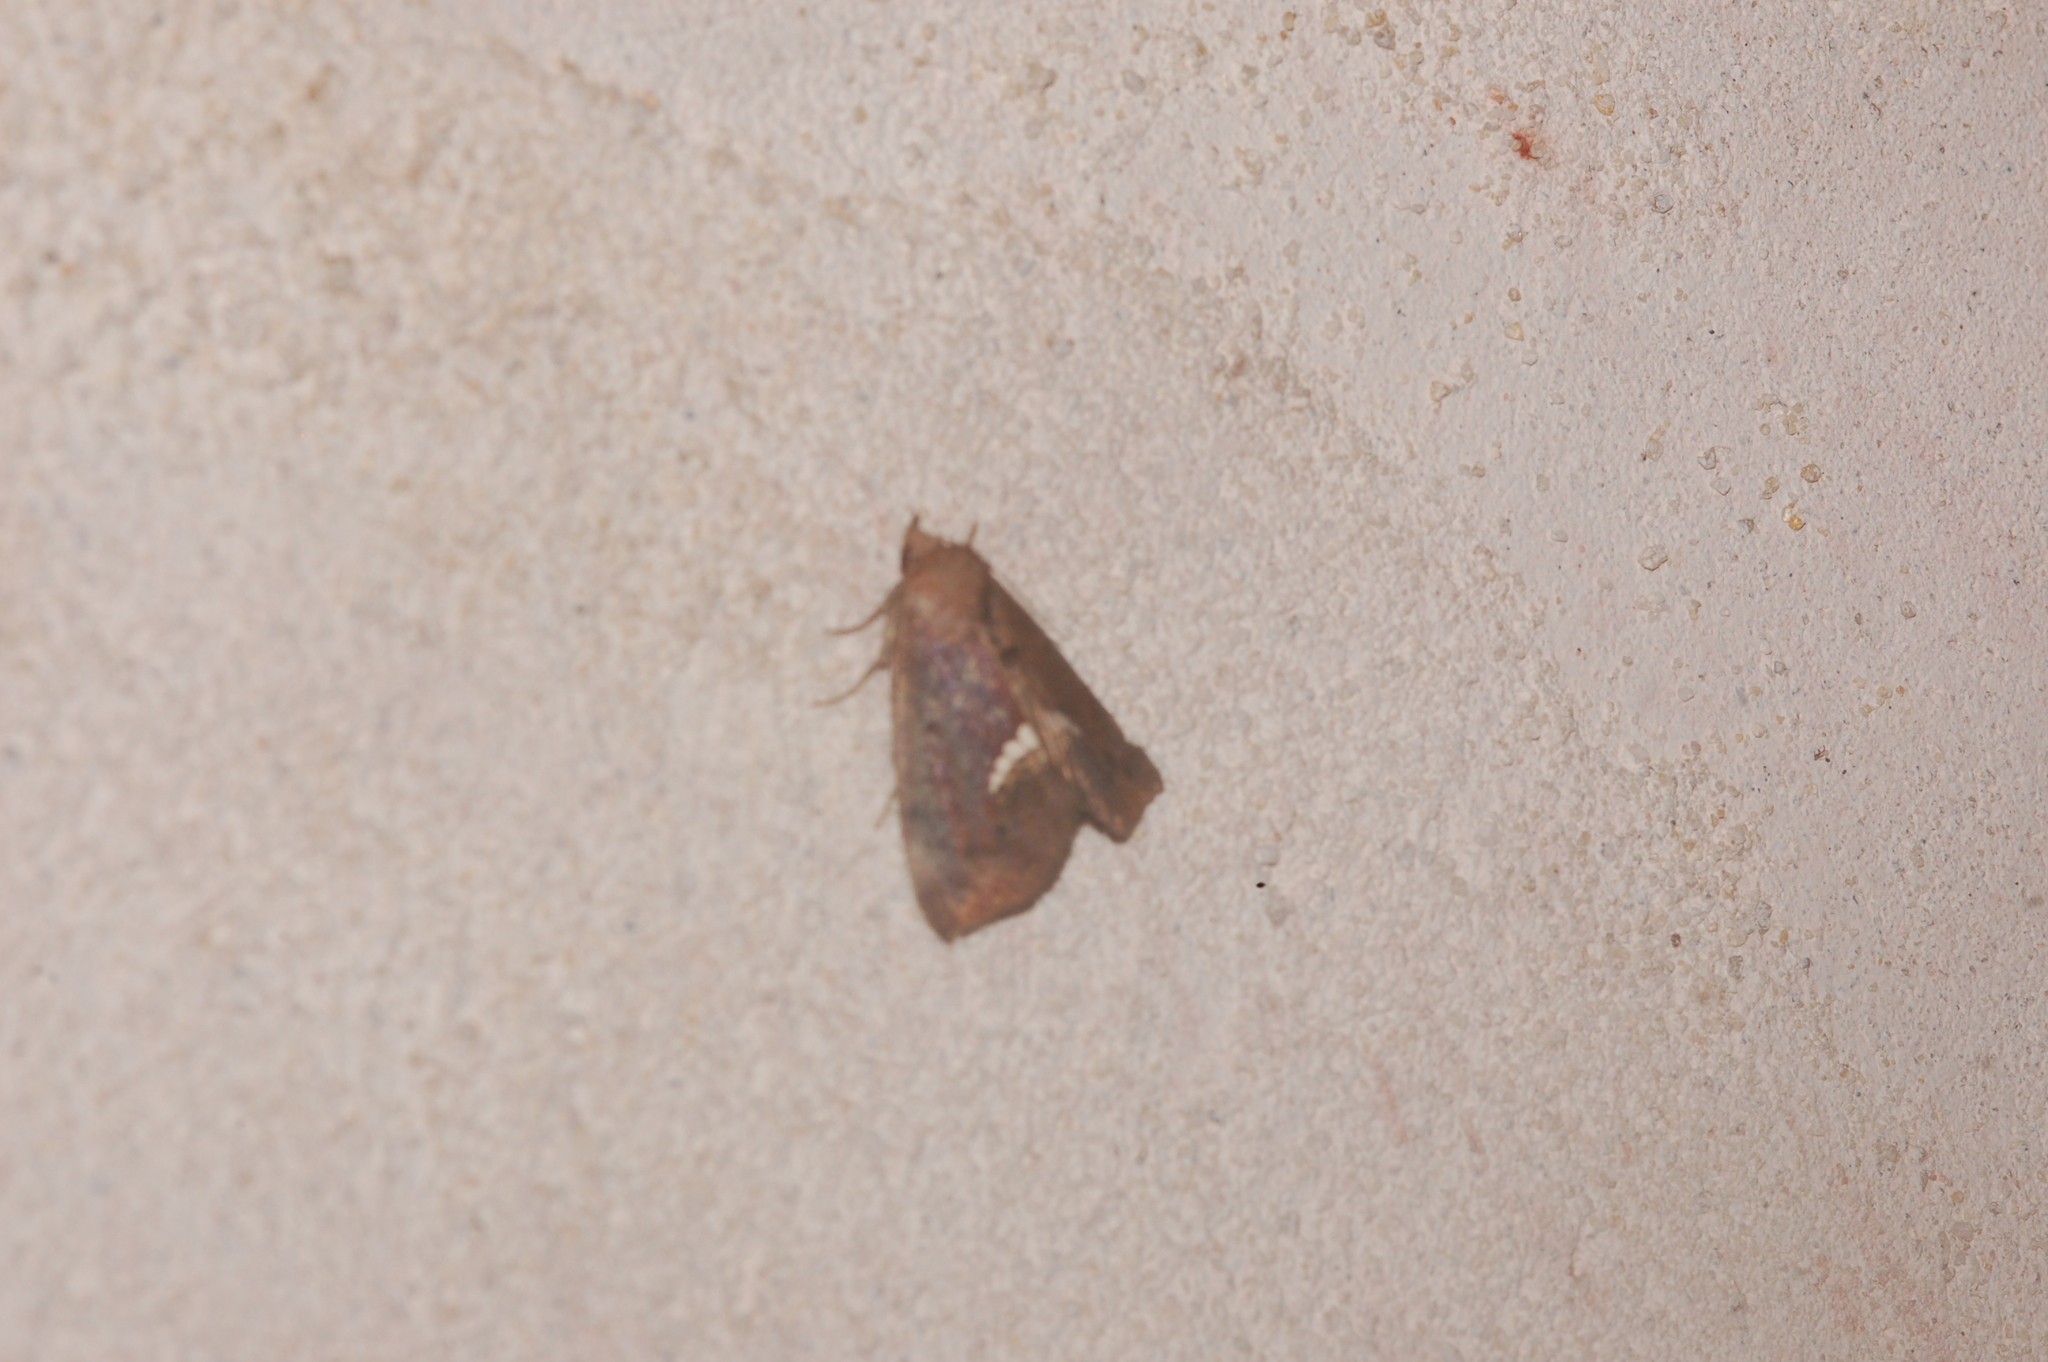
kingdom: Animalia
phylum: Arthropoda
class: Insecta
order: Lepidoptera
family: Erebidae
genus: Hypsoropha
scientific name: Hypsoropha hormos
